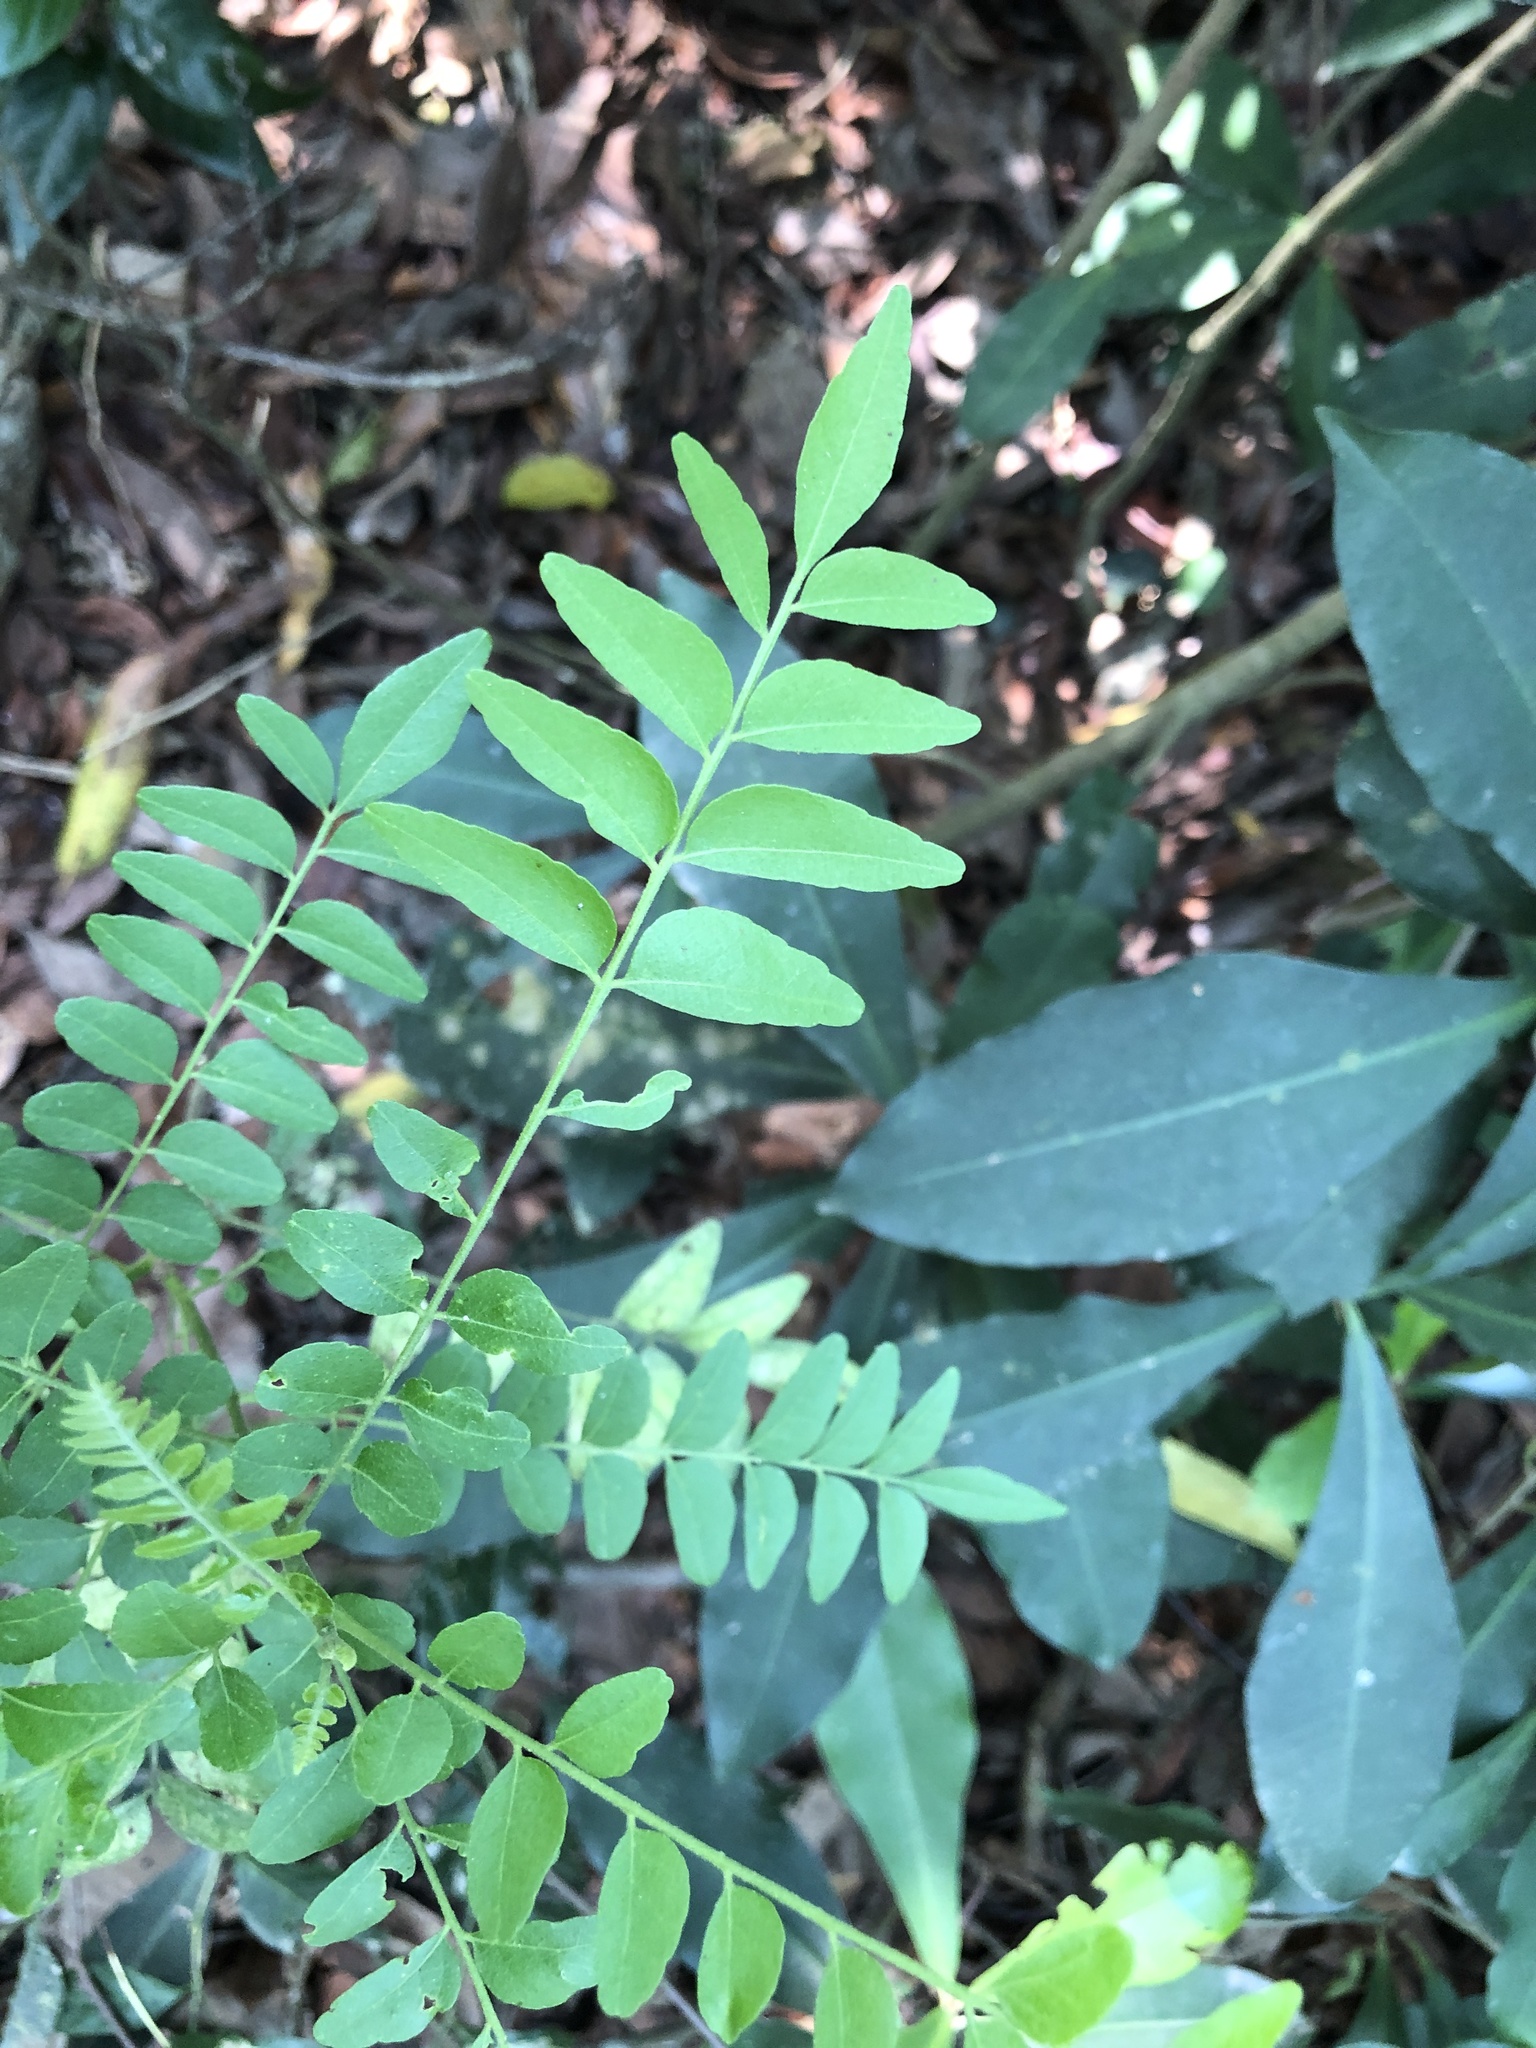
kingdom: Plantae
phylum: Tracheophyta
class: Magnoliopsida
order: Sapindales
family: Rutaceae
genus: Clausena
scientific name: Clausena excavata
